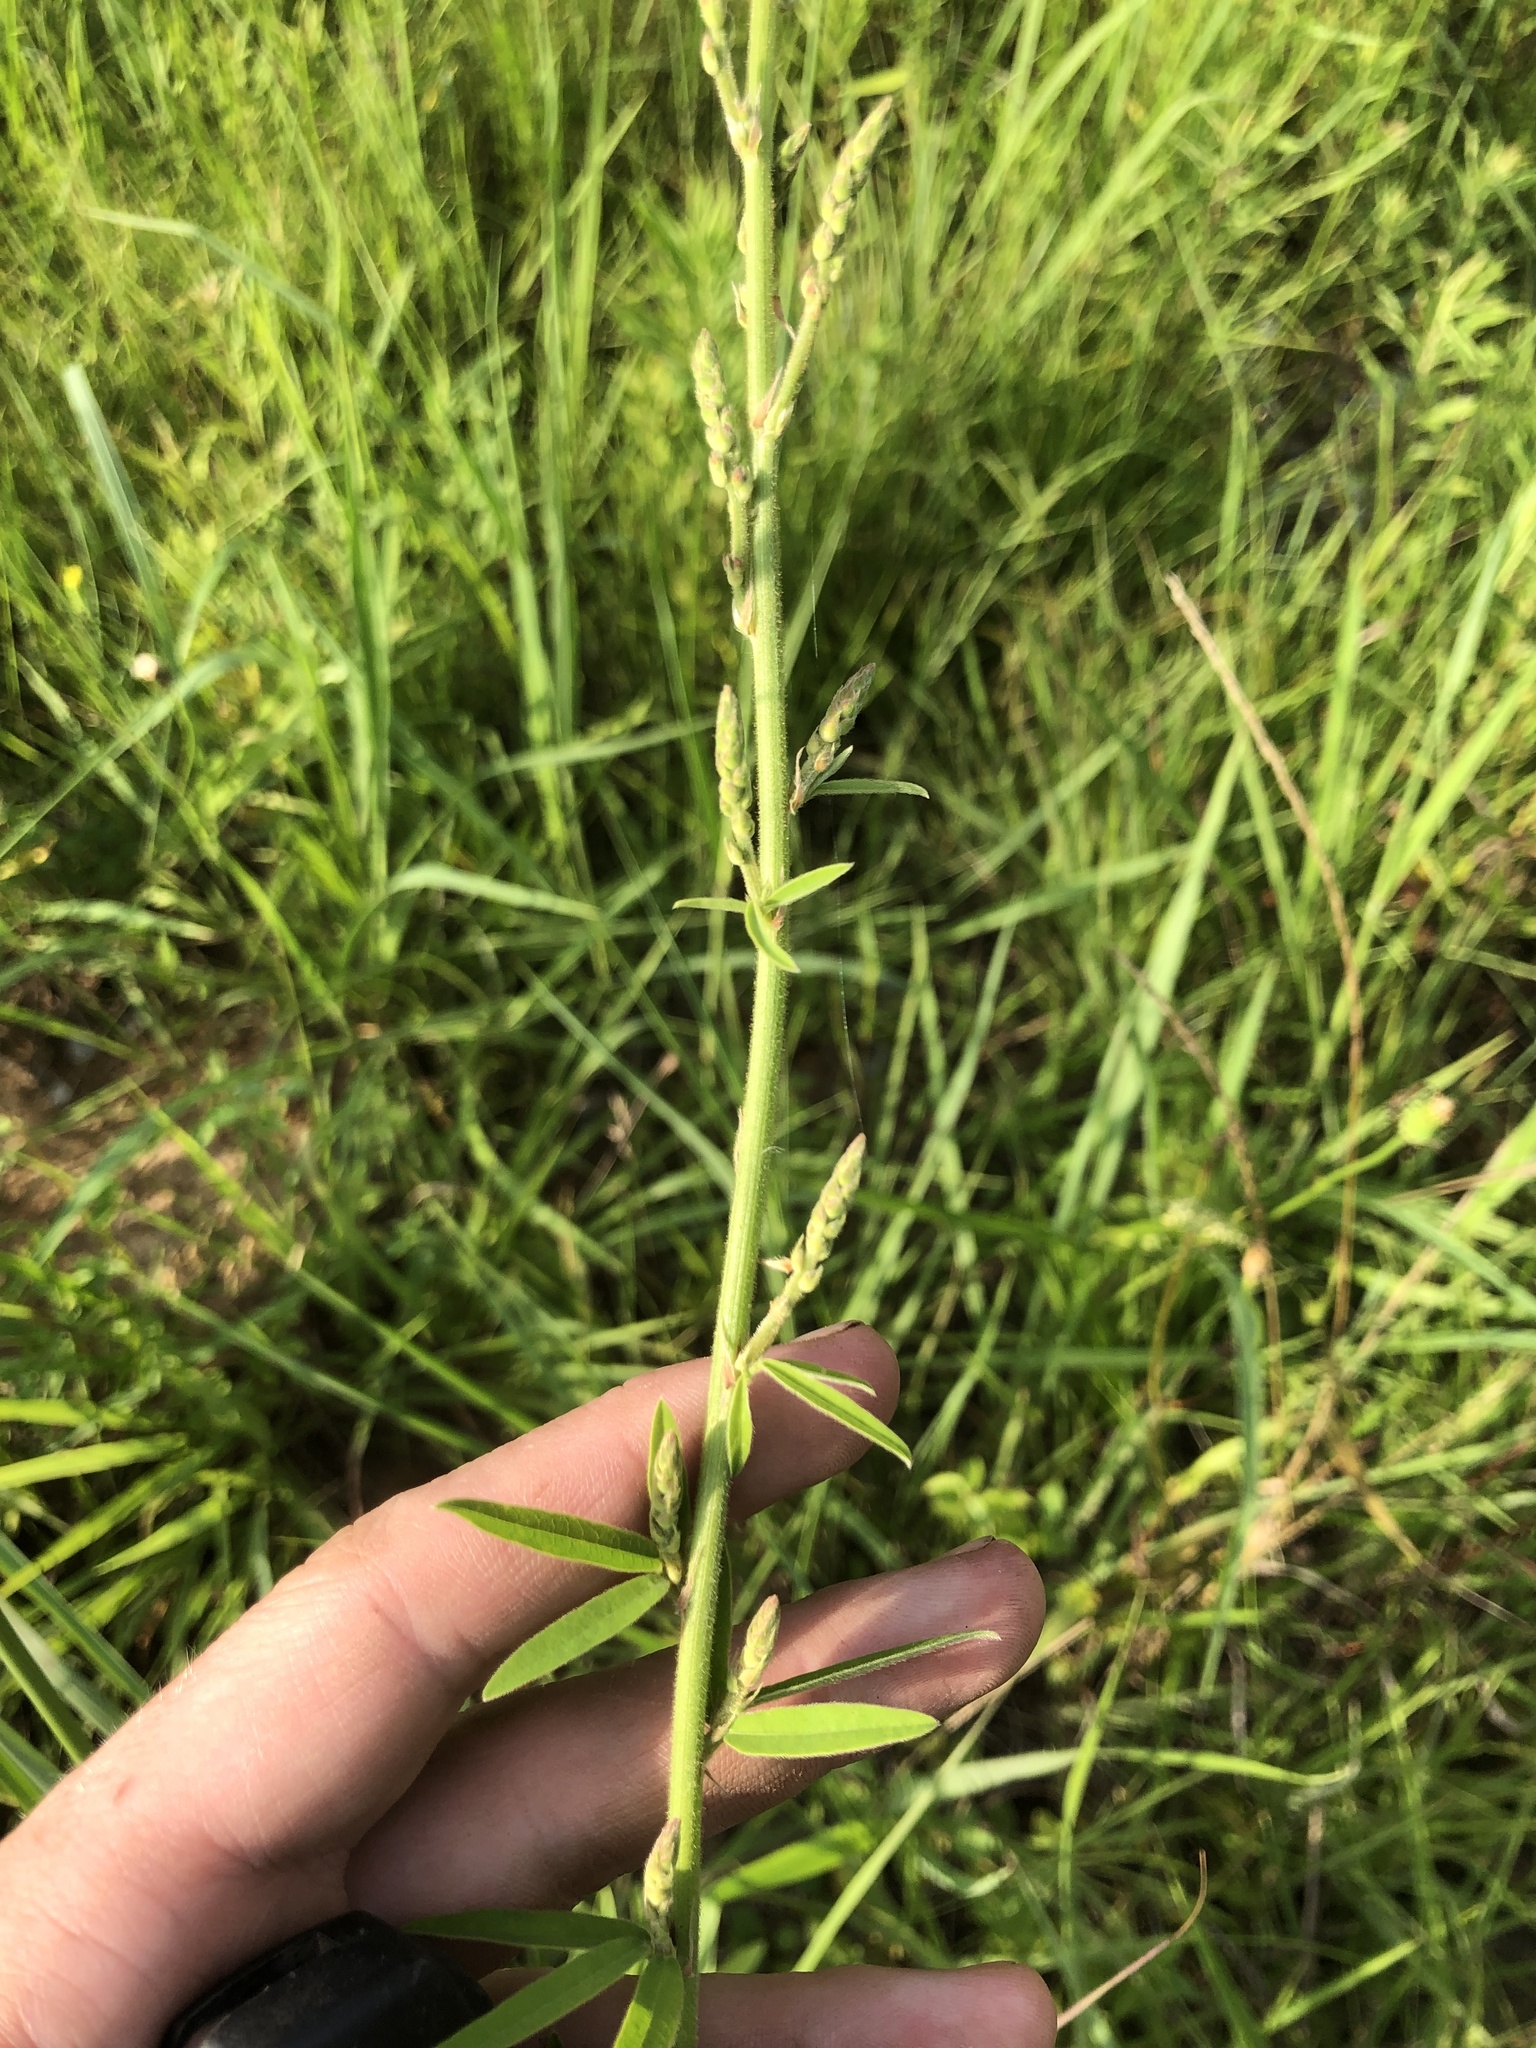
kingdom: Plantae
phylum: Tracheophyta
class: Magnoliopsida
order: Fabales
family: Fabaceae
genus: Desmodium
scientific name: Desmodium sessilifolium
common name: Sessile tick-clover
